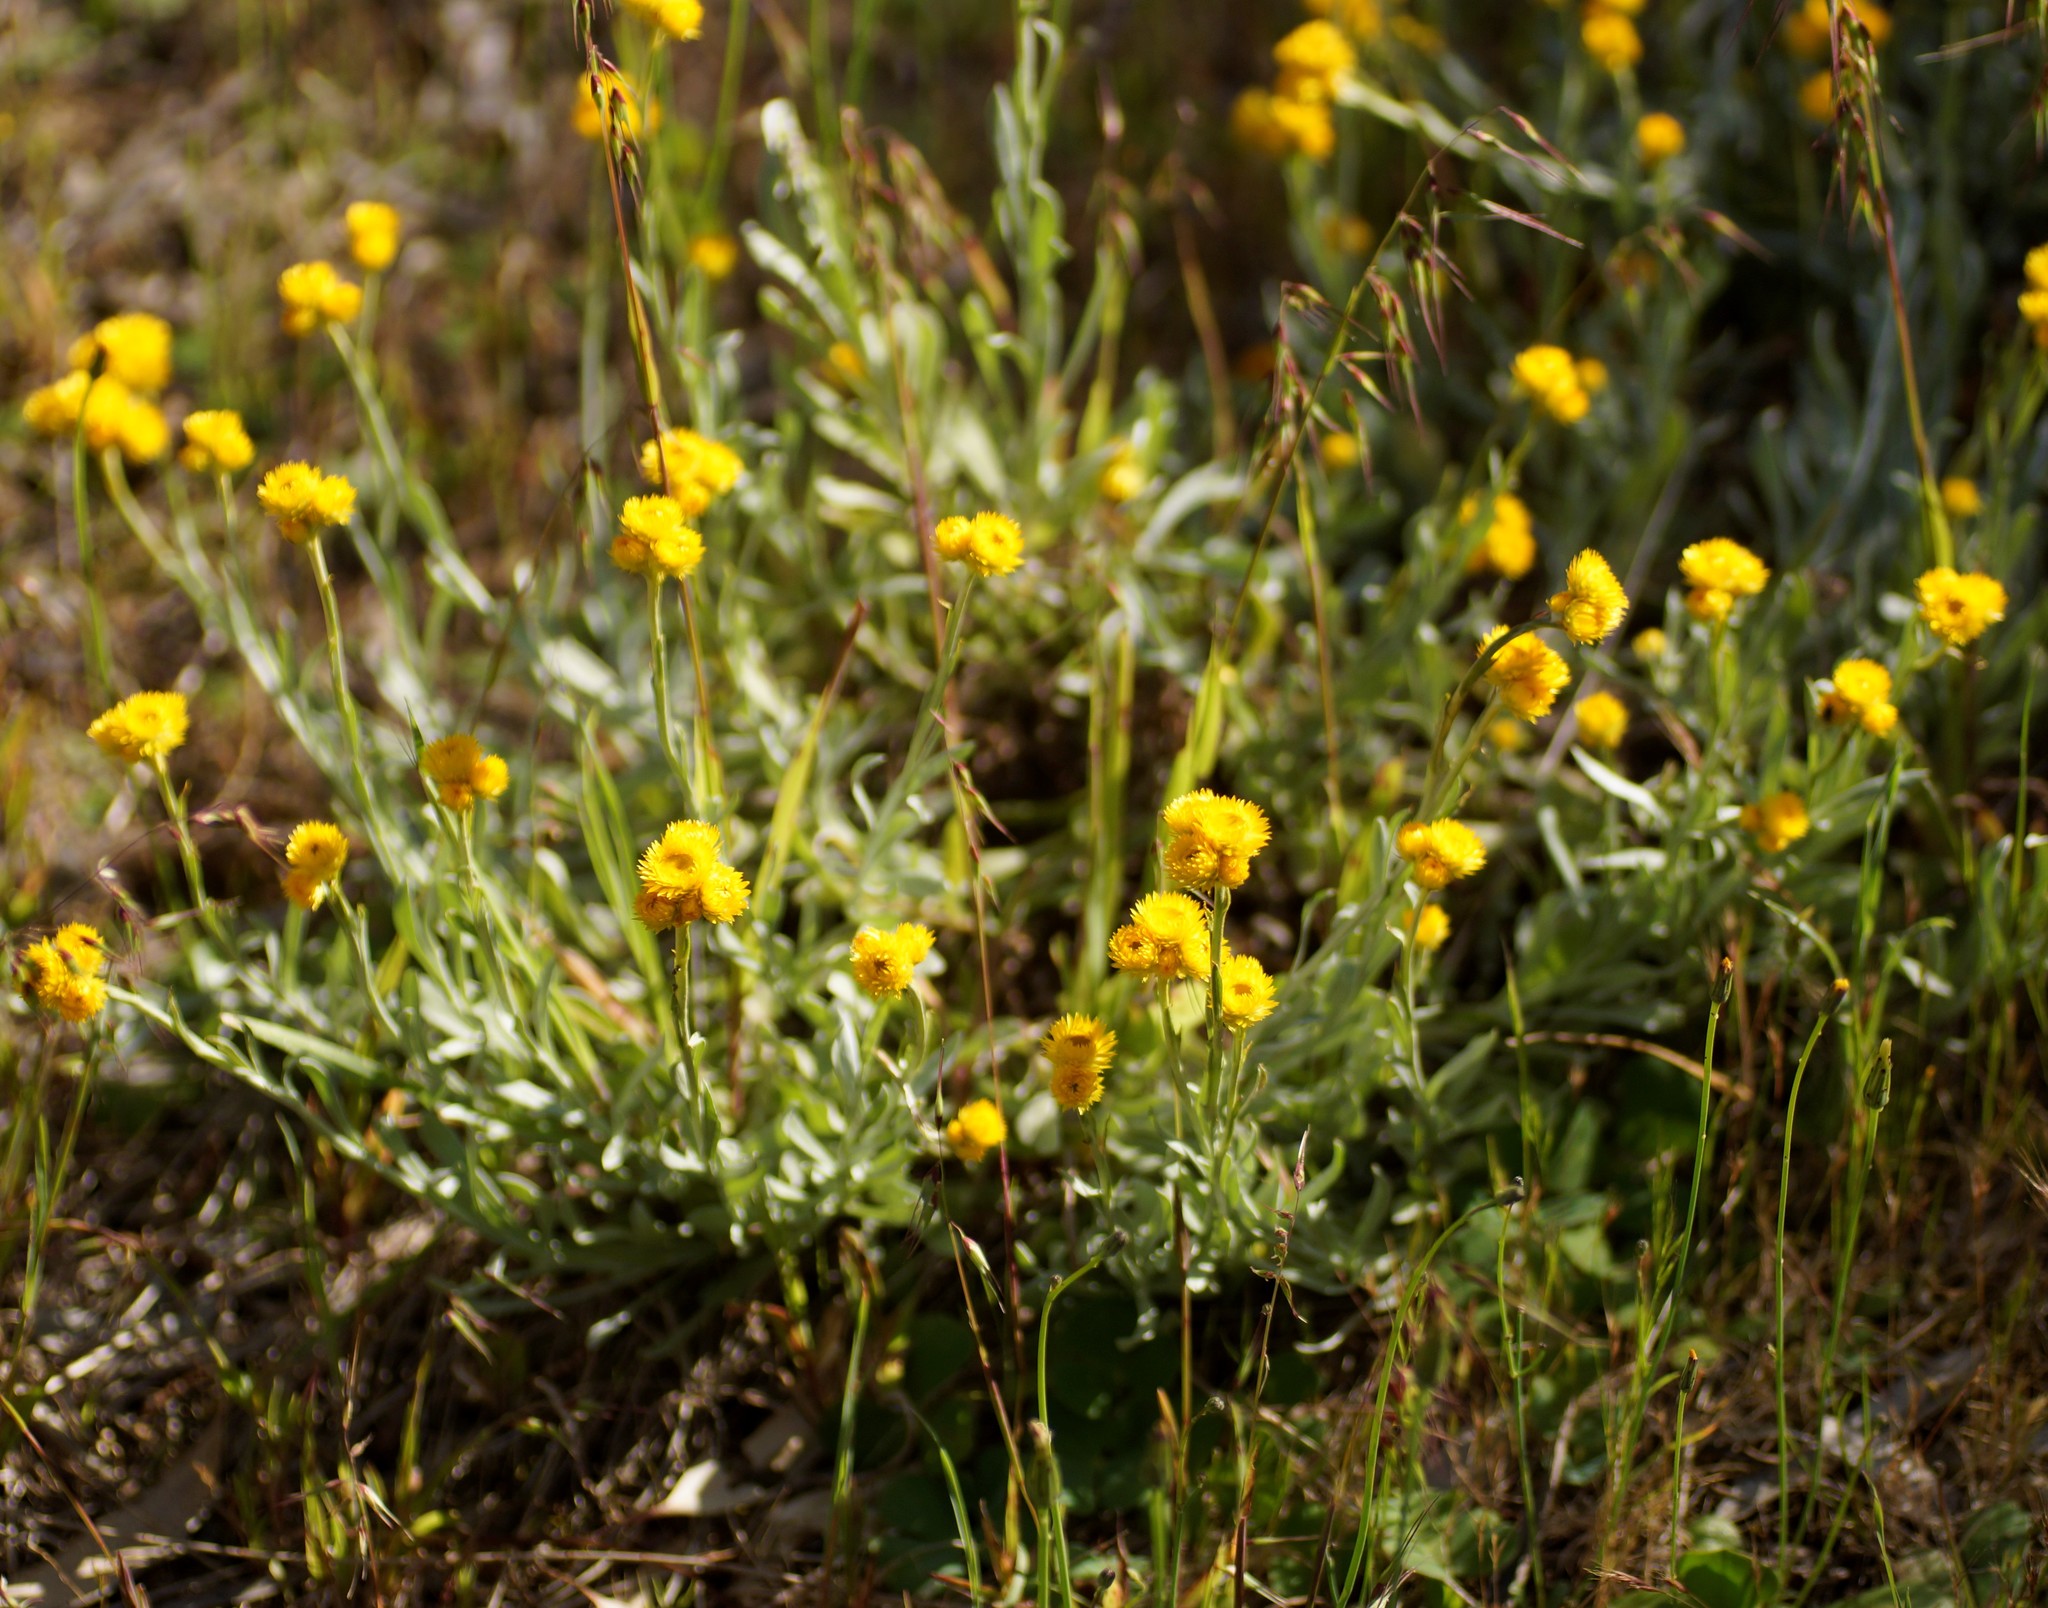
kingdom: Plantae
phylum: Tracheophyta
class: Magnoliopsida
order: Asterales
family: Asteraceae
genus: Chrysocephalum
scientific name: Chrysocephalum apiculatum
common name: Common everlasting
